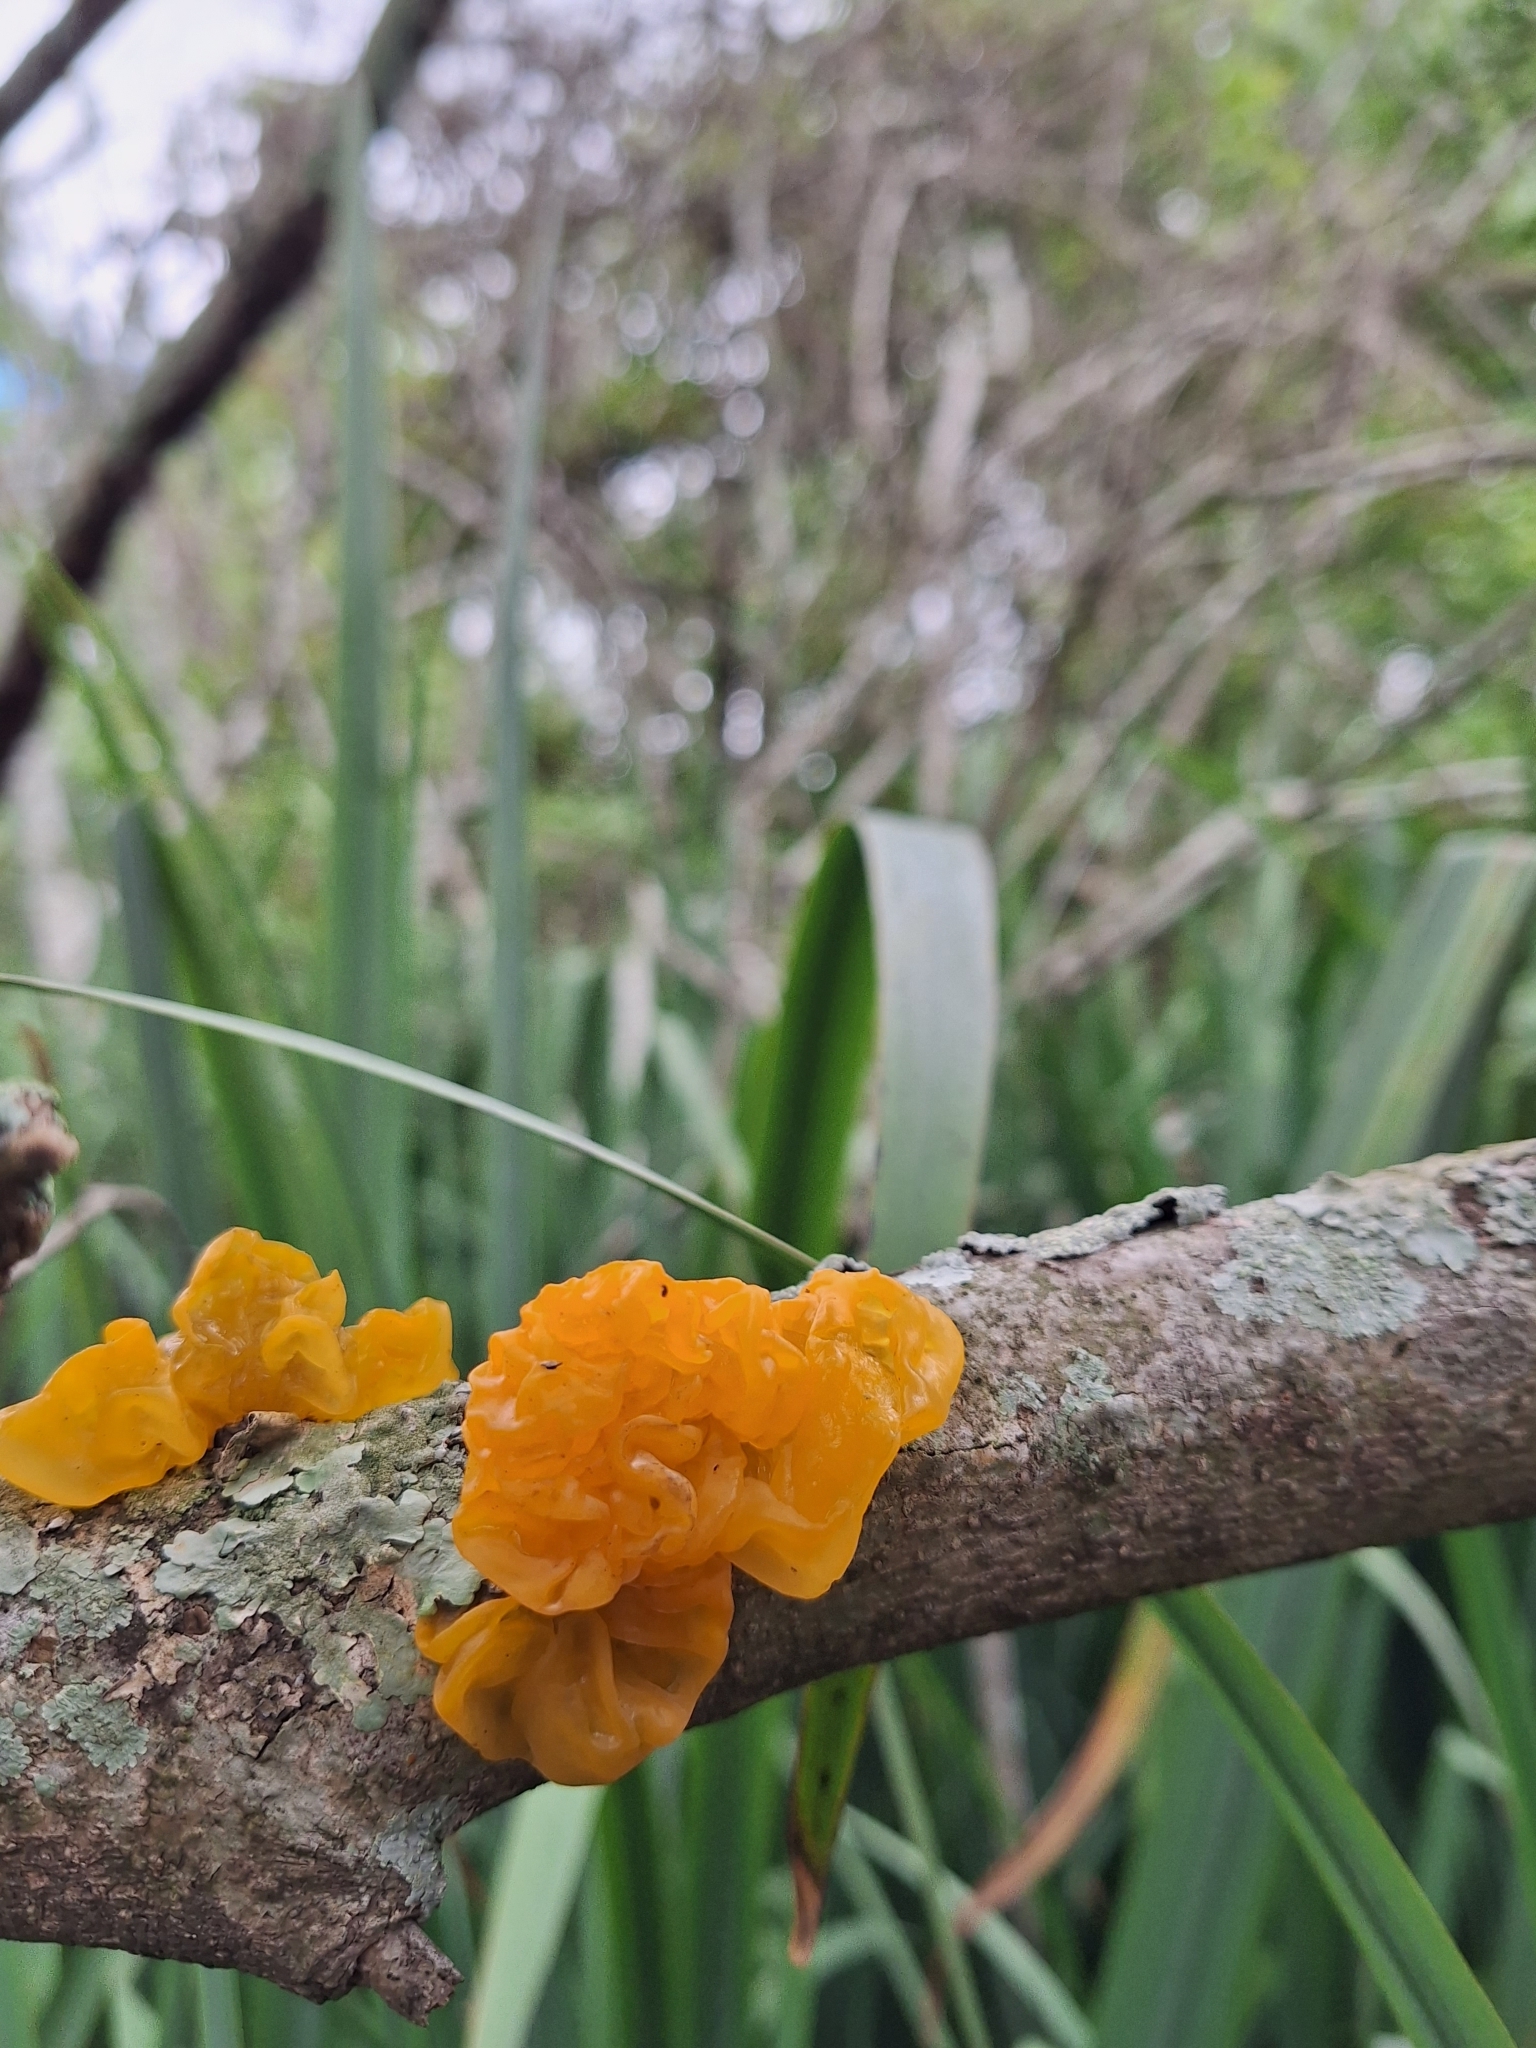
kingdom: Fungi
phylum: Basidiomycota
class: Tremellomycetes
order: Tremellales
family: Tremellaceae
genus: Tremella
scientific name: Tremella mesenterica
